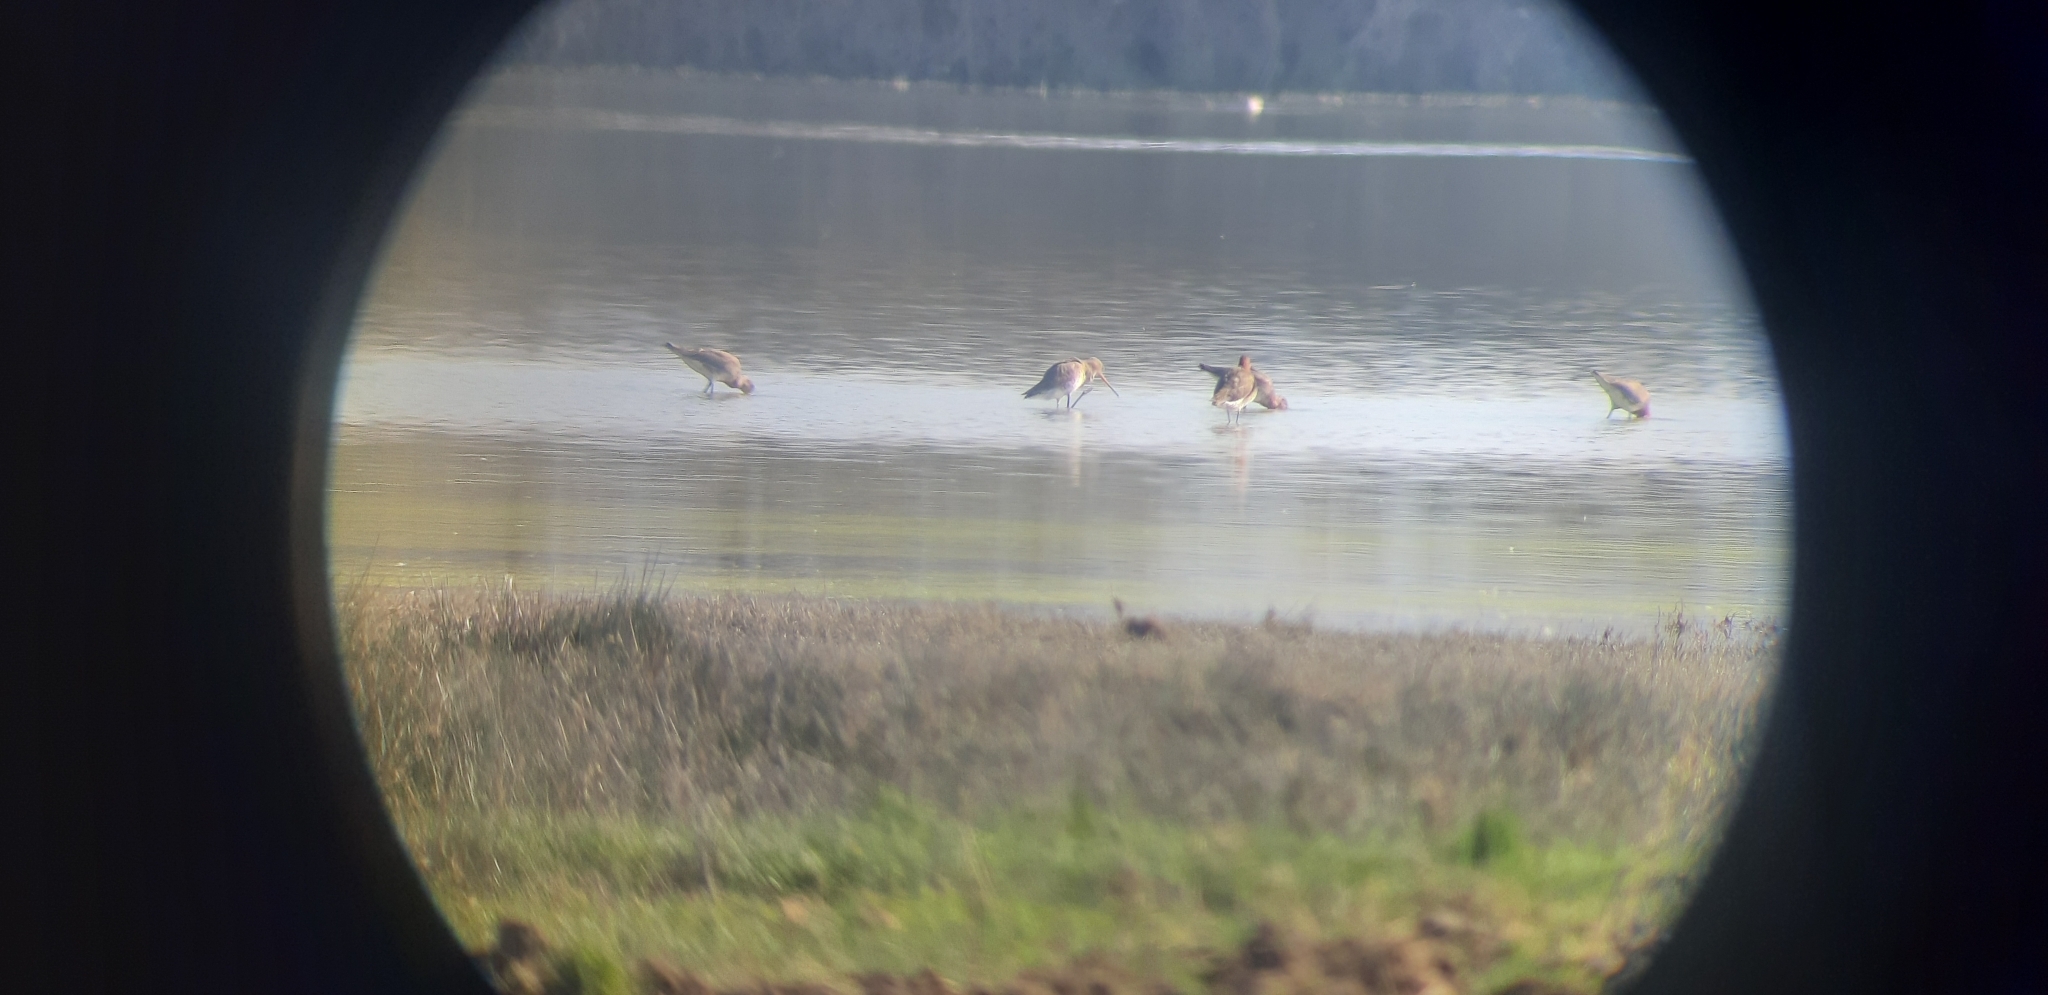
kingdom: Animalia
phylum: Chordata
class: Aves
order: Charadriiformes
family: Scolopacidae
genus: Limosa
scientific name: Limosa limosa
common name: Black-tailed godwit
